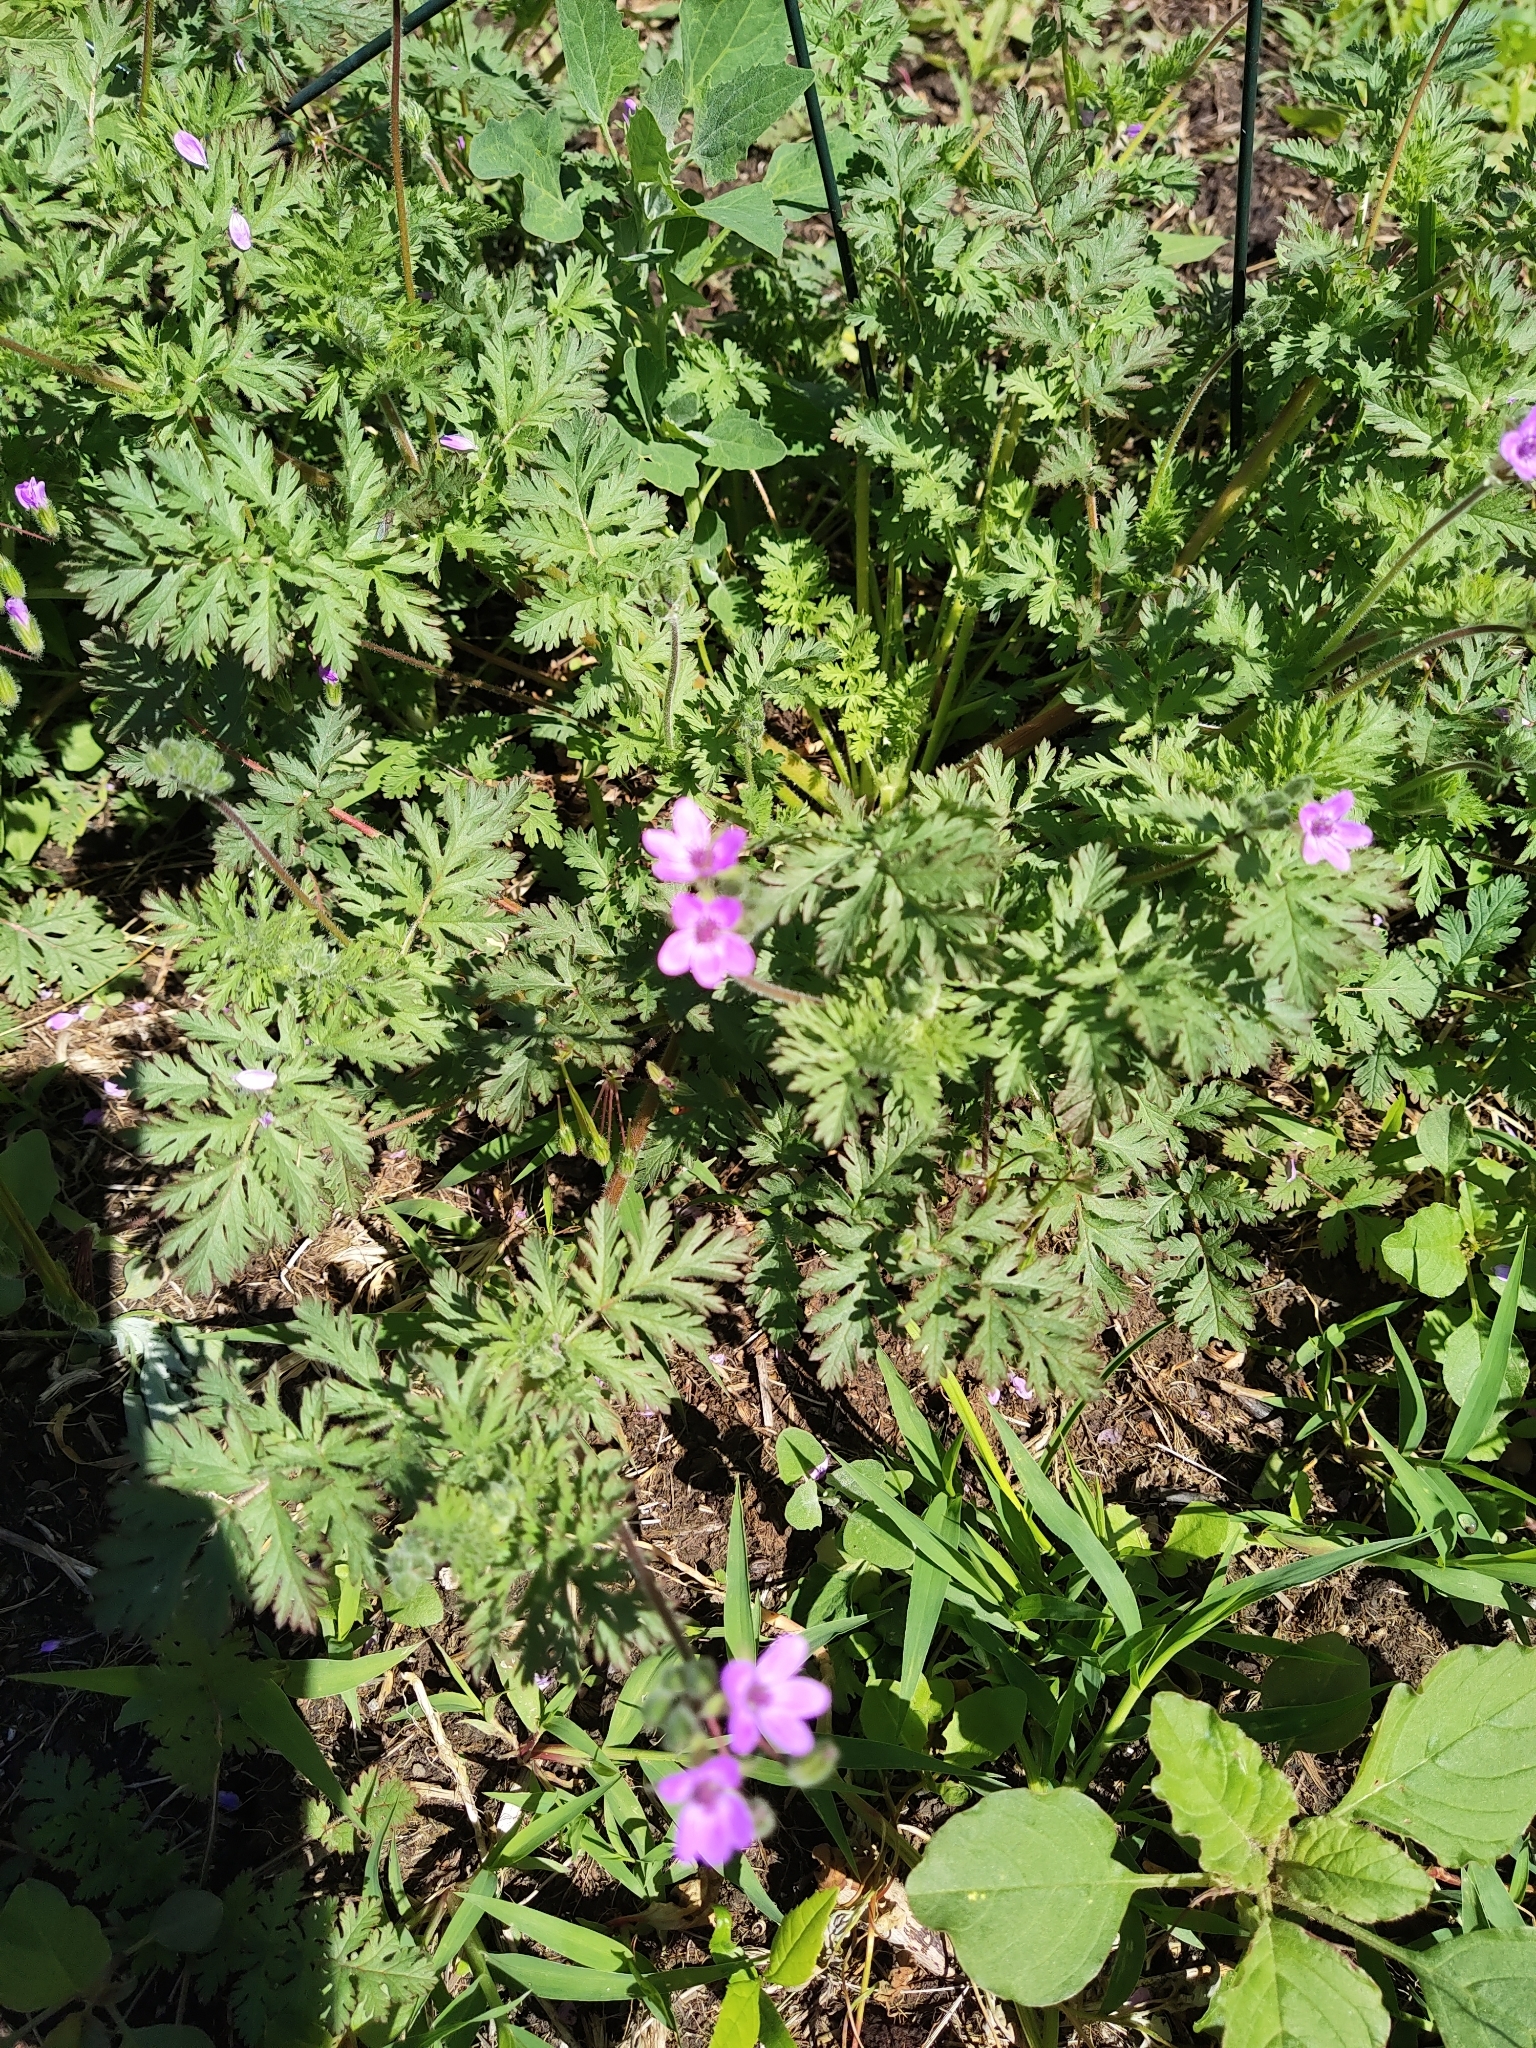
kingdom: Plantae
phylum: Tracheophyta
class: Magnoliopsida
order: Geraniales
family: Geraniaceae
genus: Erodium
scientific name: Erodium cicutarium
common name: Common stork's-bill
